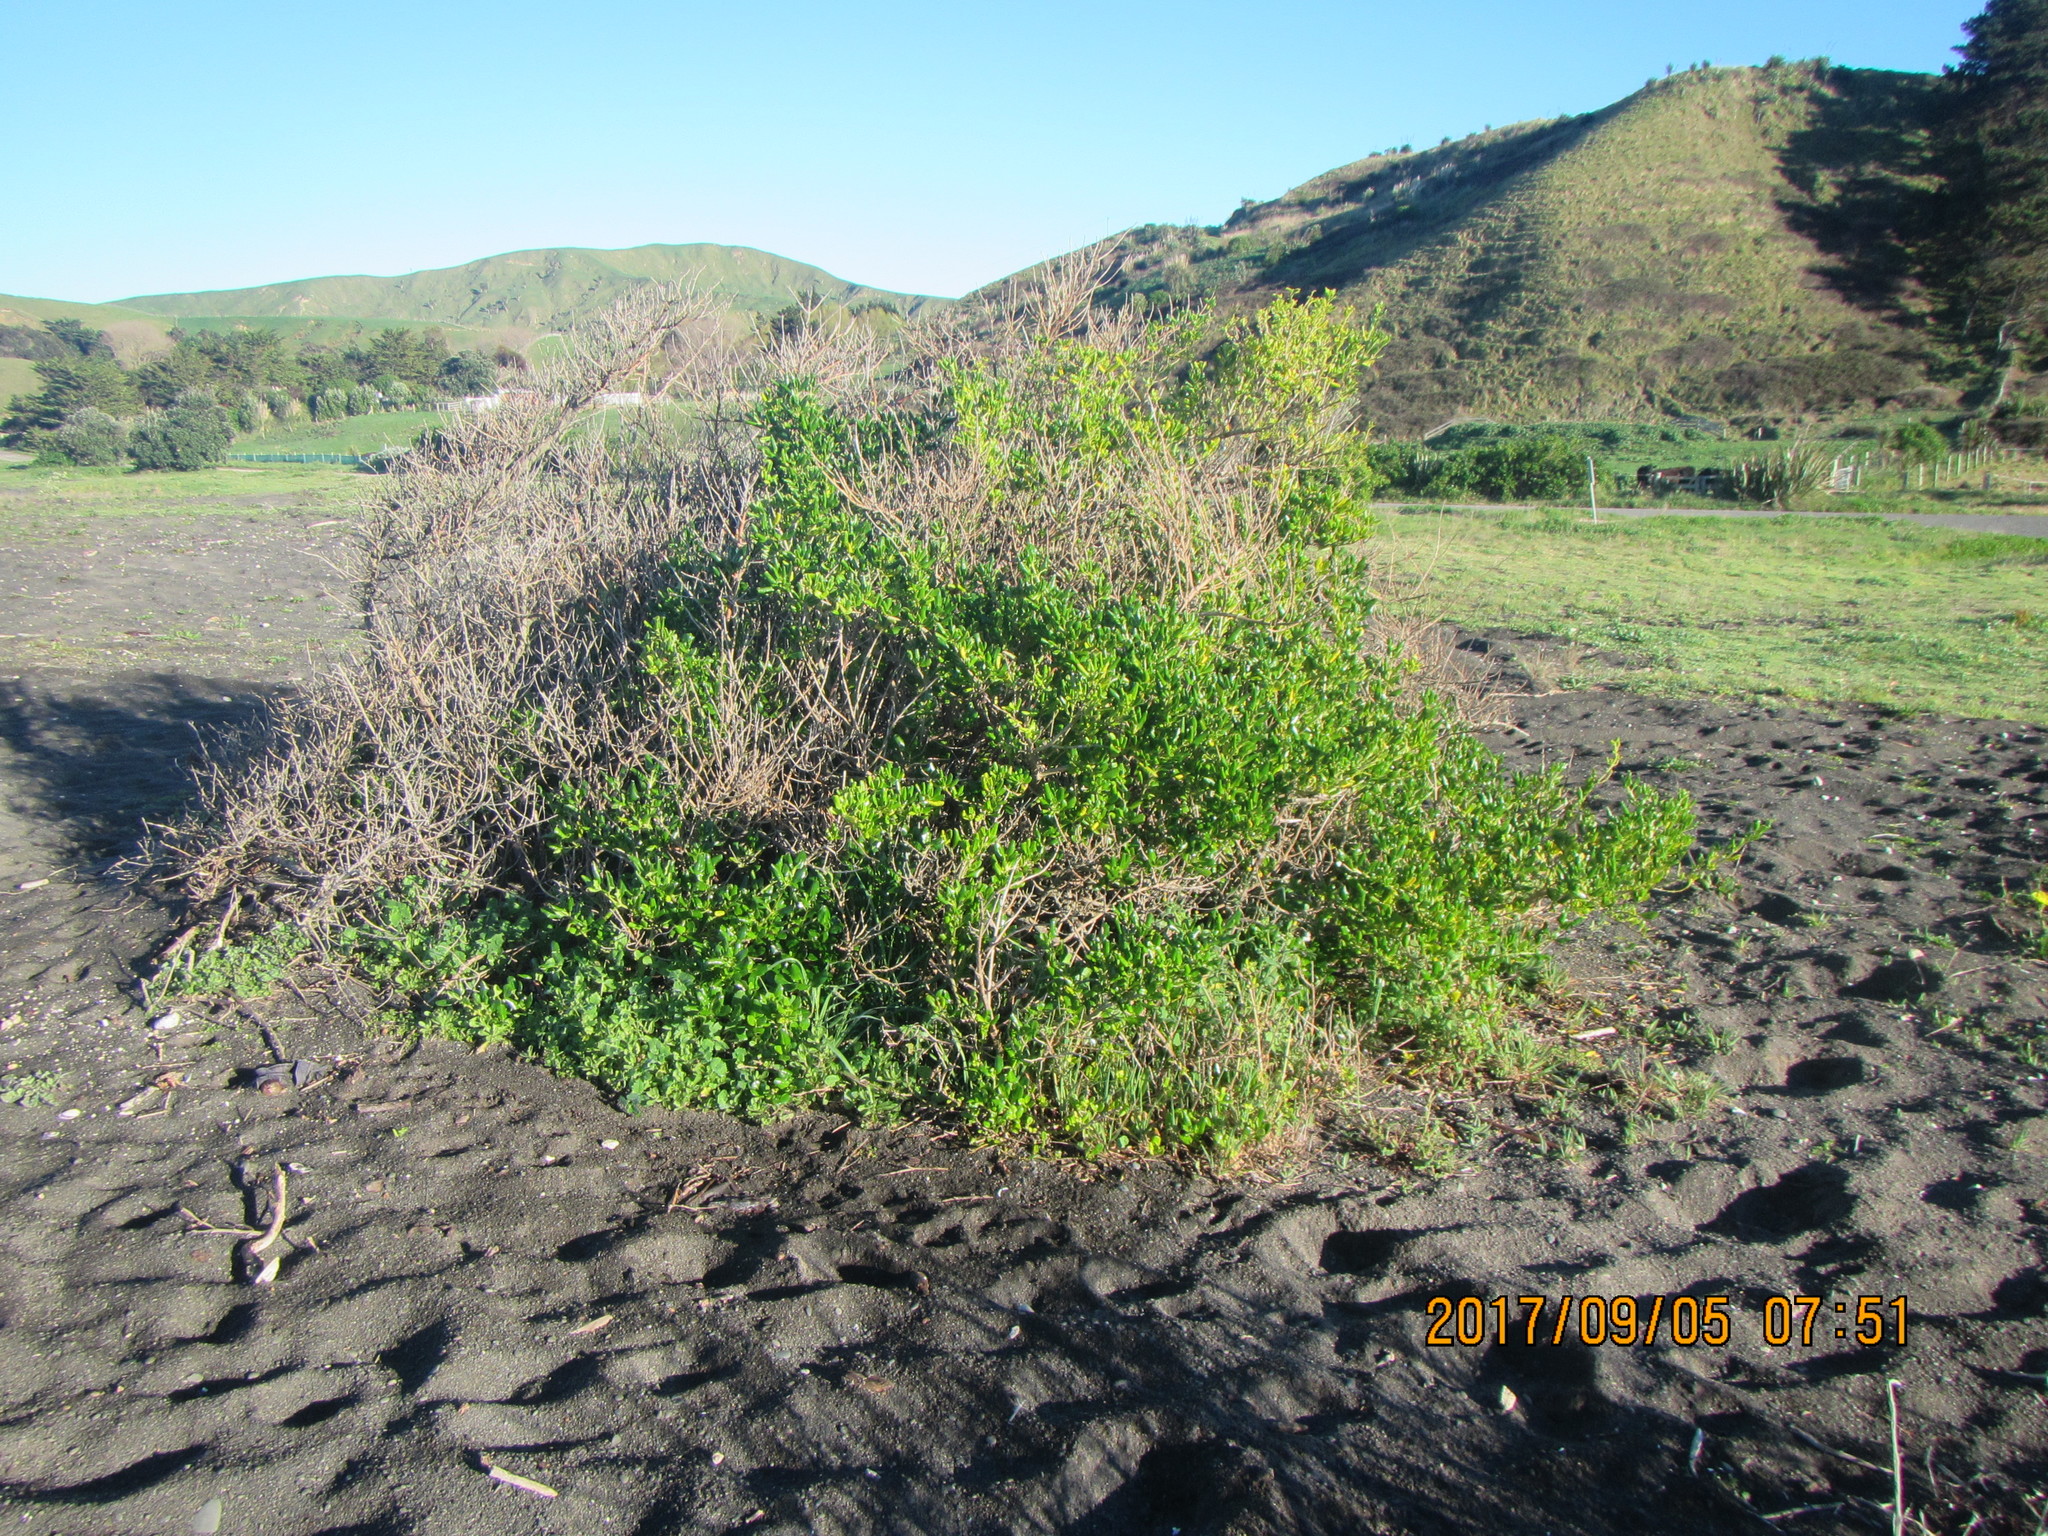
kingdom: Plantae
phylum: Tracheophyta
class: Magnoliopsida
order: Gentianales
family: Rubiaceae
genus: Coprosma
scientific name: Coprosma repens
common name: Tree bedstraw
